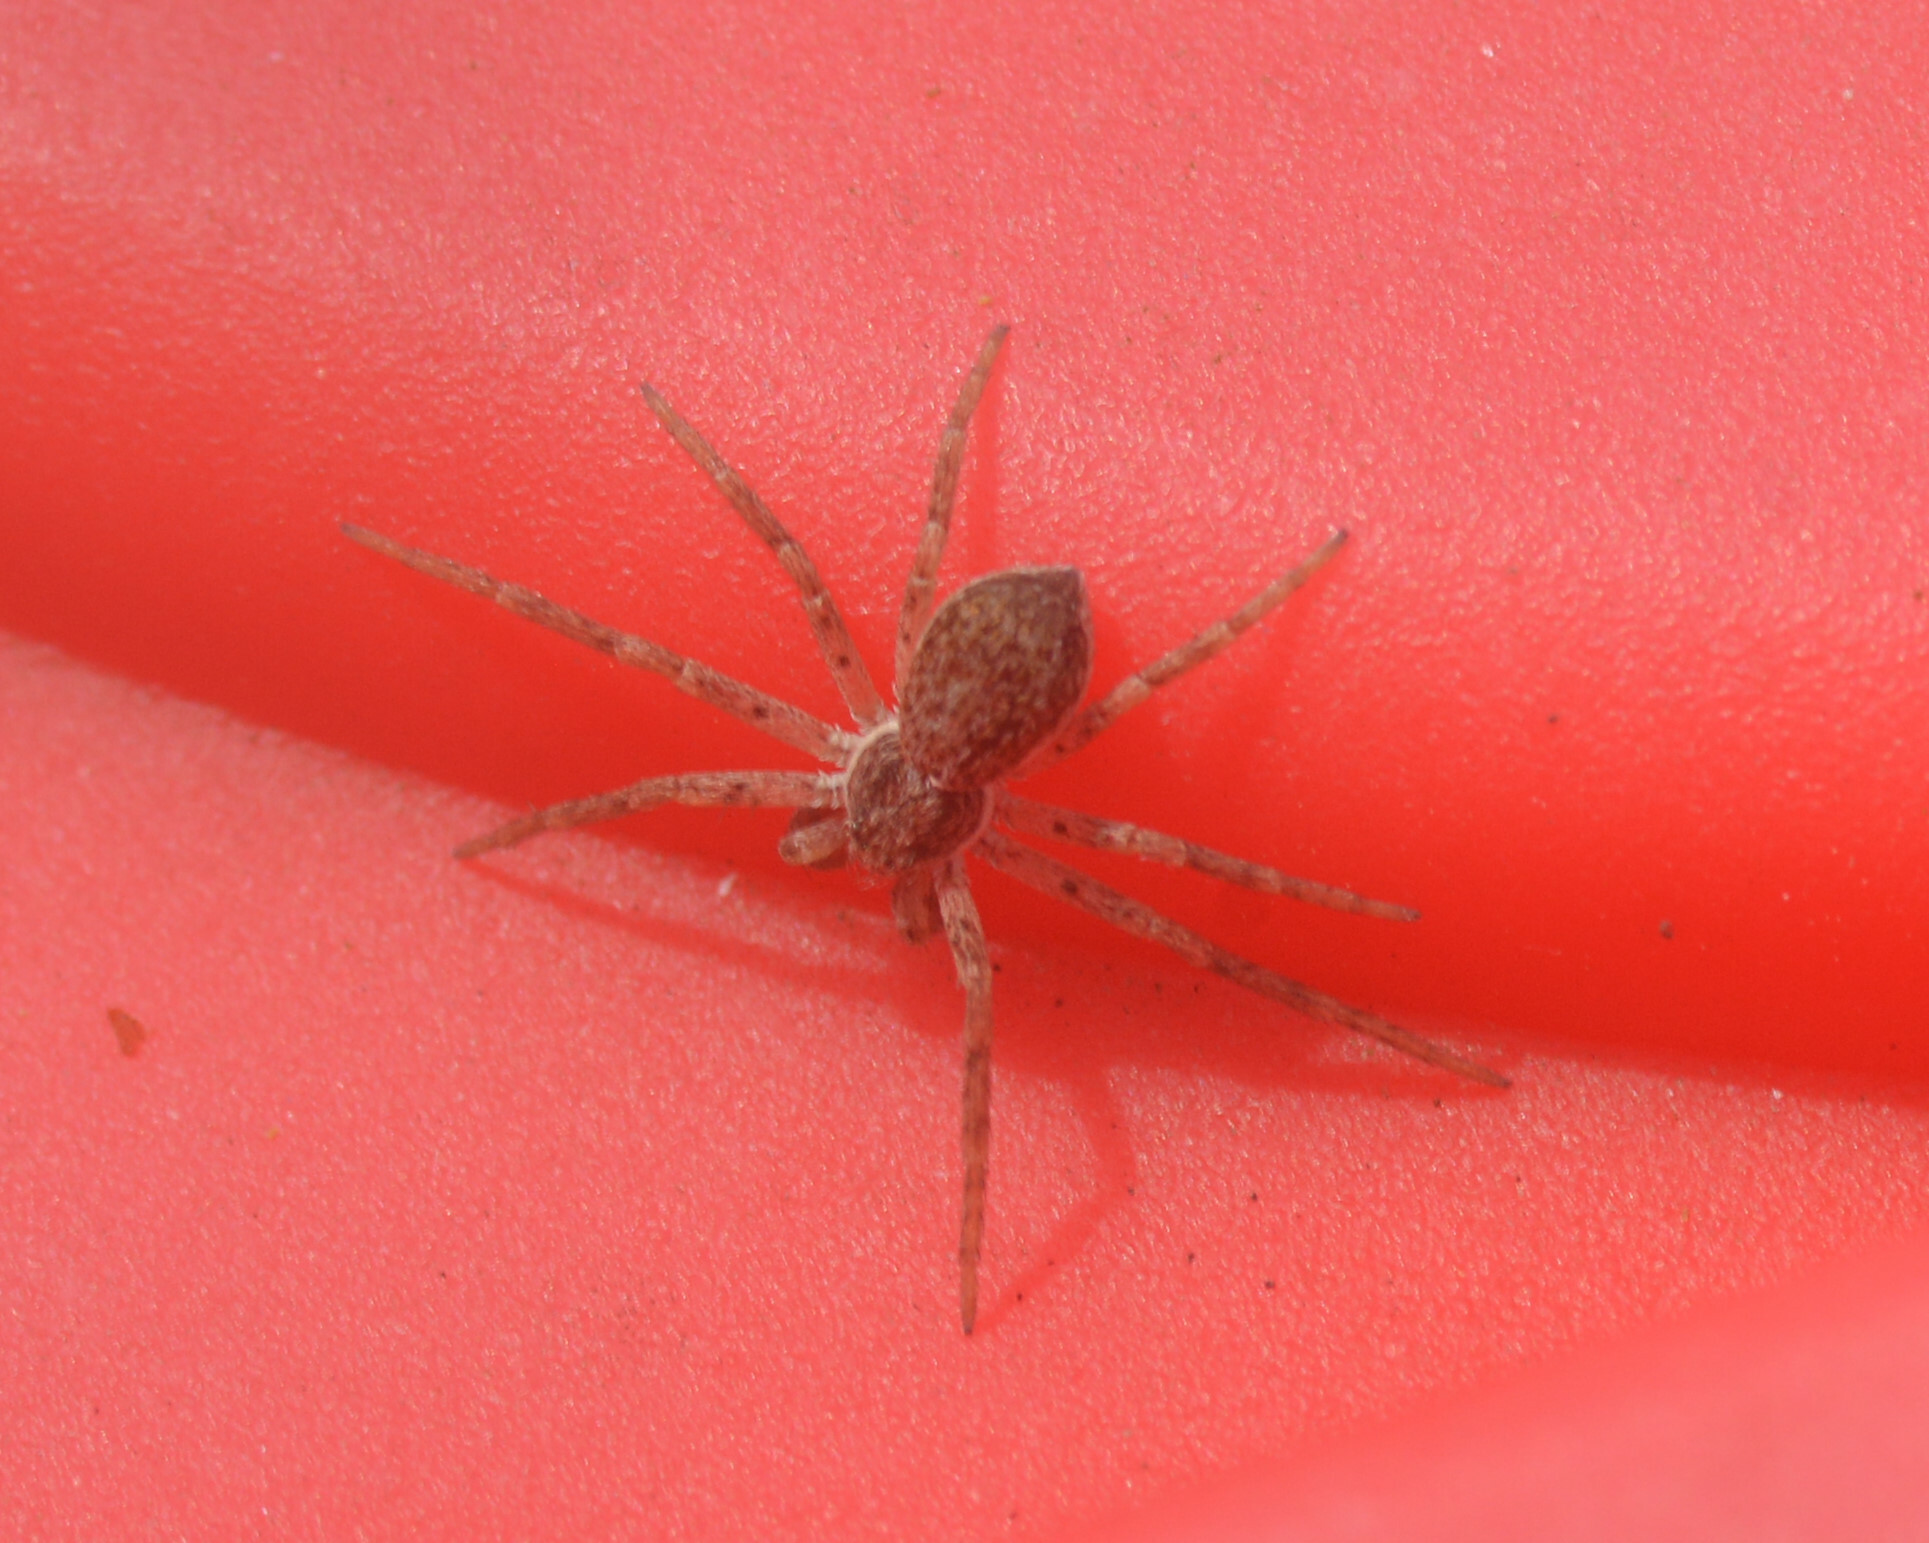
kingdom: Animalia
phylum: Arthropoda
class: Arachnida
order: Araneae
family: Philodromidae
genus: Philodromus
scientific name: Philodromus dispar
